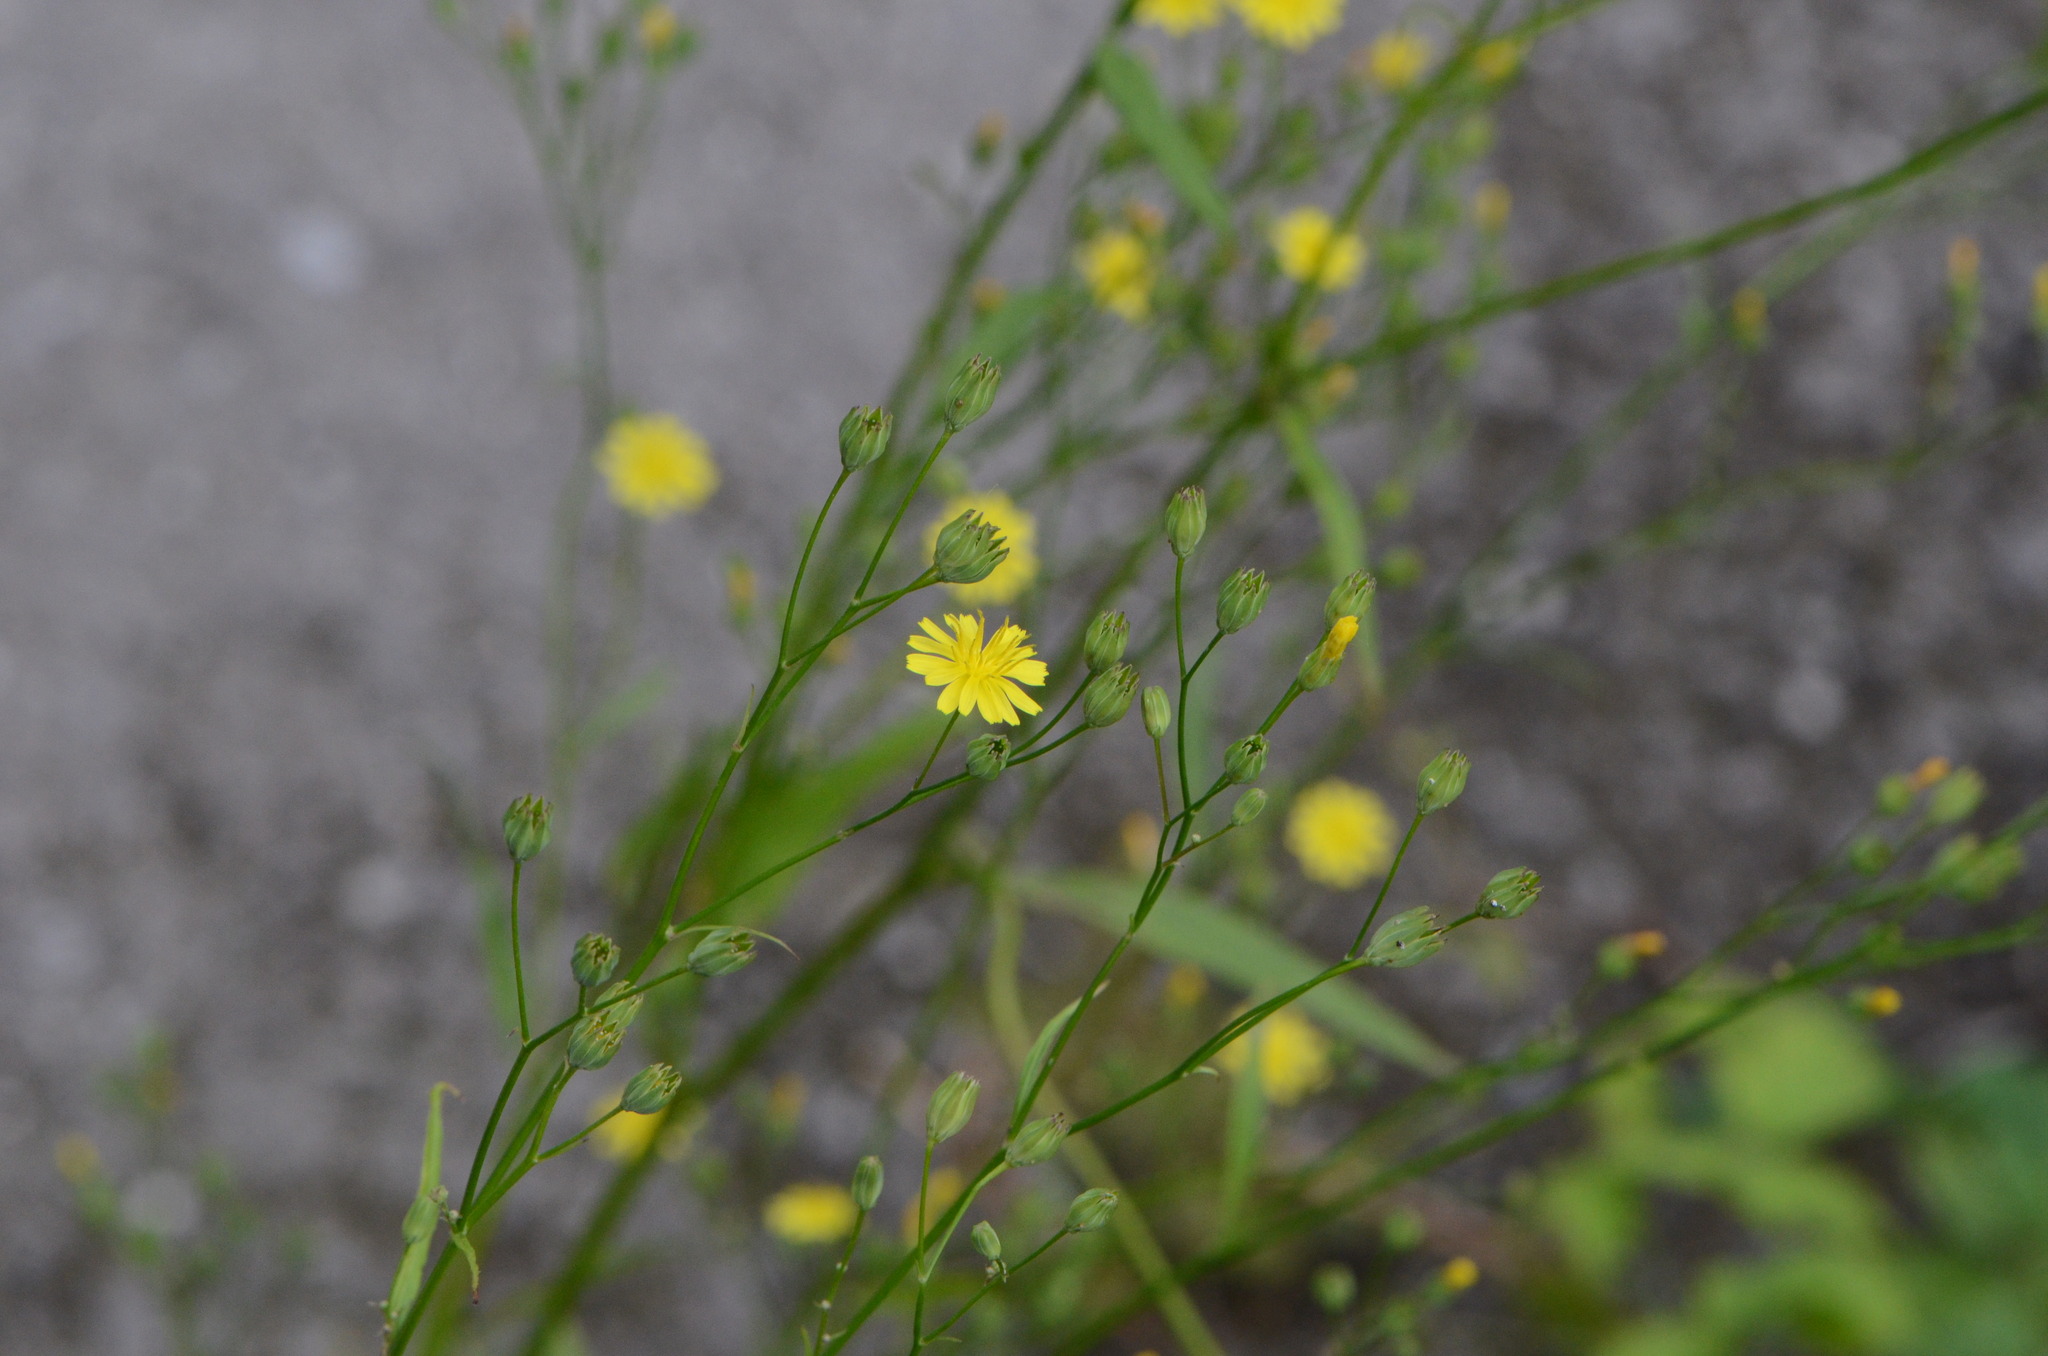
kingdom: Plantae
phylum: Tracheophyta
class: Magnoliopsida
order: Asterales
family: Asteraceae
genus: Lapsana
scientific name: Lapsana communis
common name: Nipplewort
